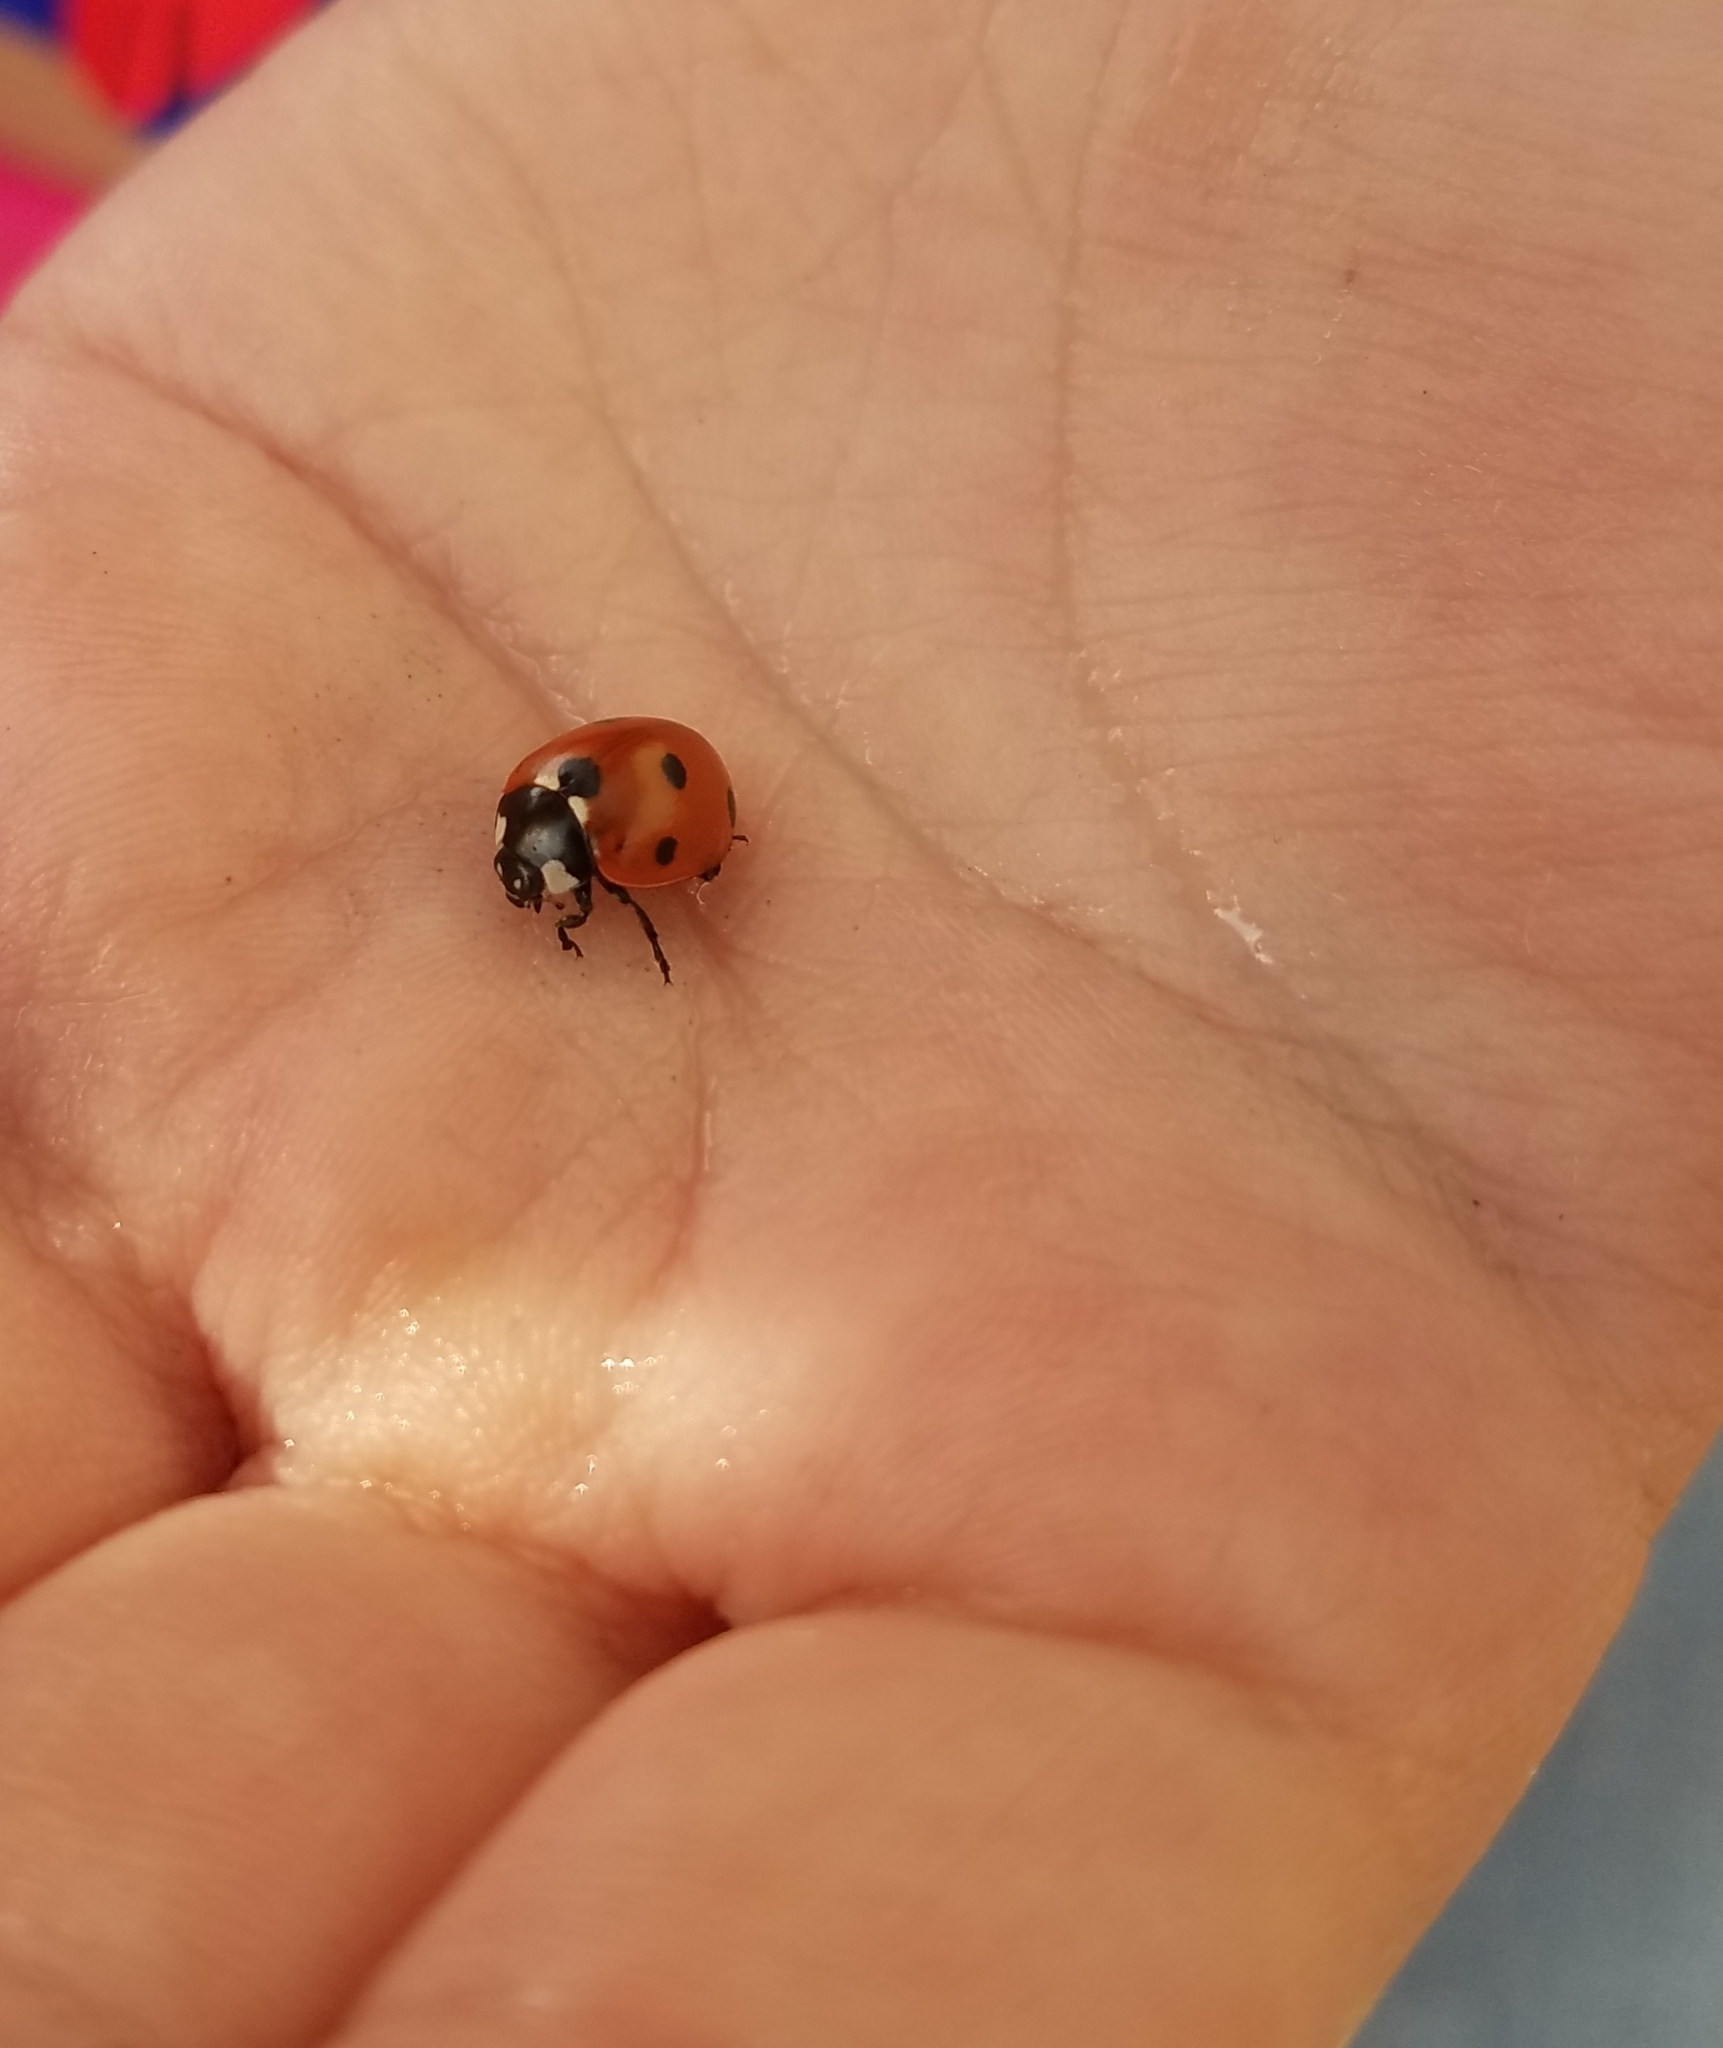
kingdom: Animalia
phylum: Arthropoda
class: Insecta
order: Coleoptera
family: Coccinellidae
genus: Coccinella
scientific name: Coccinella septempunctata
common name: Sevenspotted lady beetle
